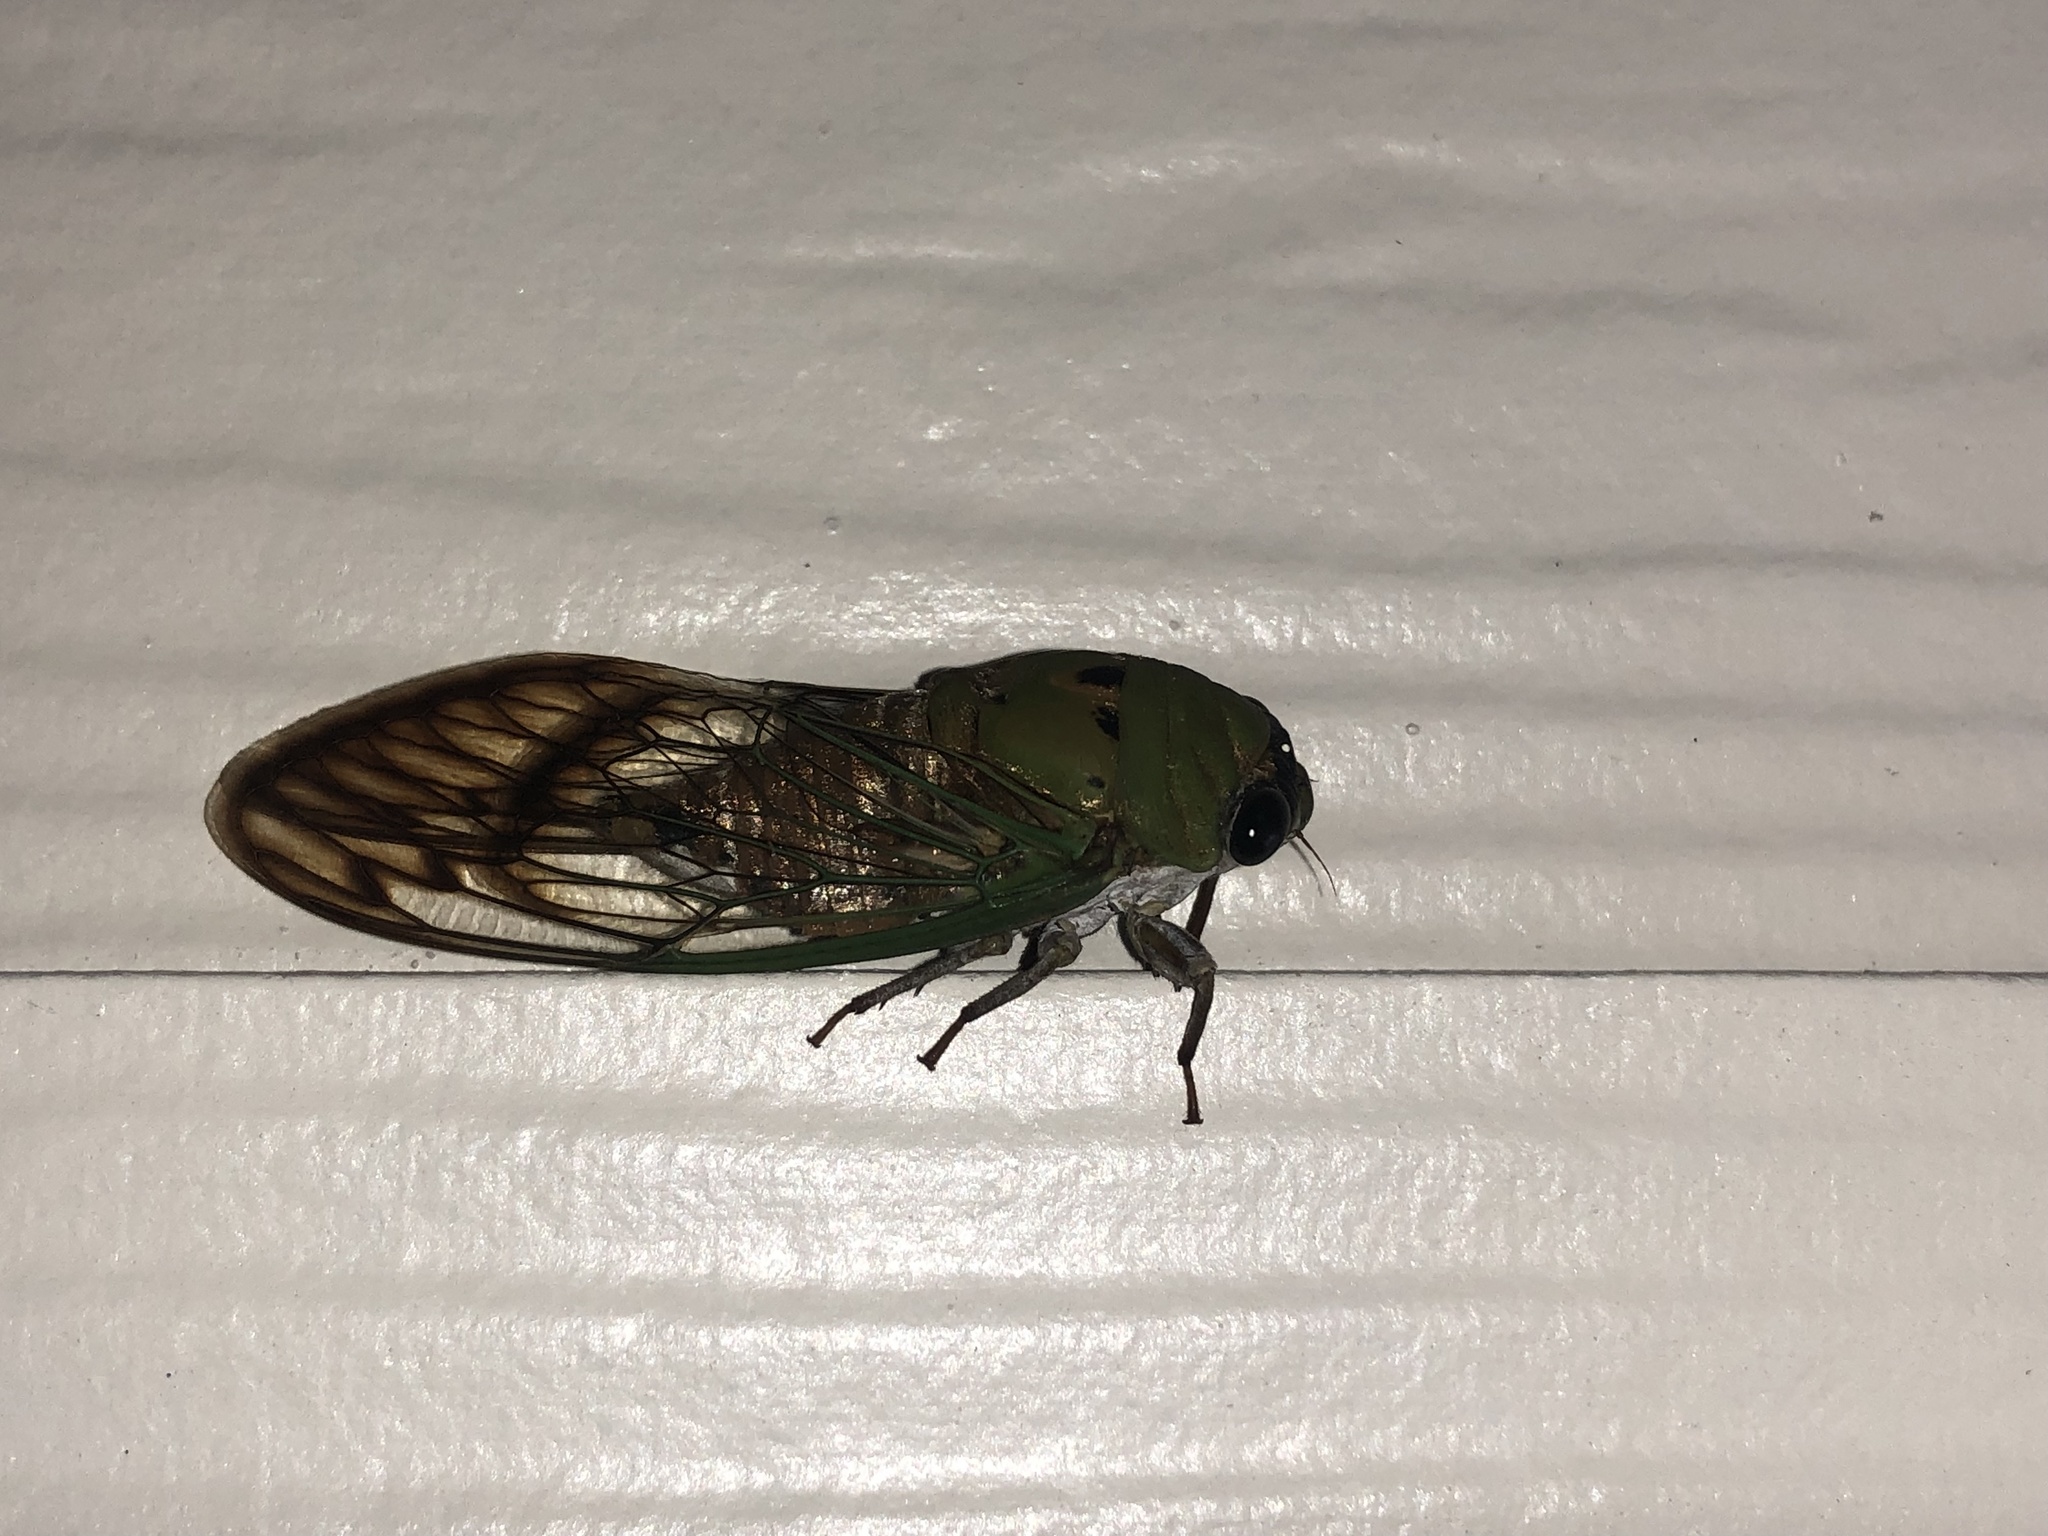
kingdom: Animalia
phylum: Arthropoda
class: Insecta
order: Hemiptera
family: Cicadidae
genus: Neotibicen
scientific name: Neotibicen superbus
